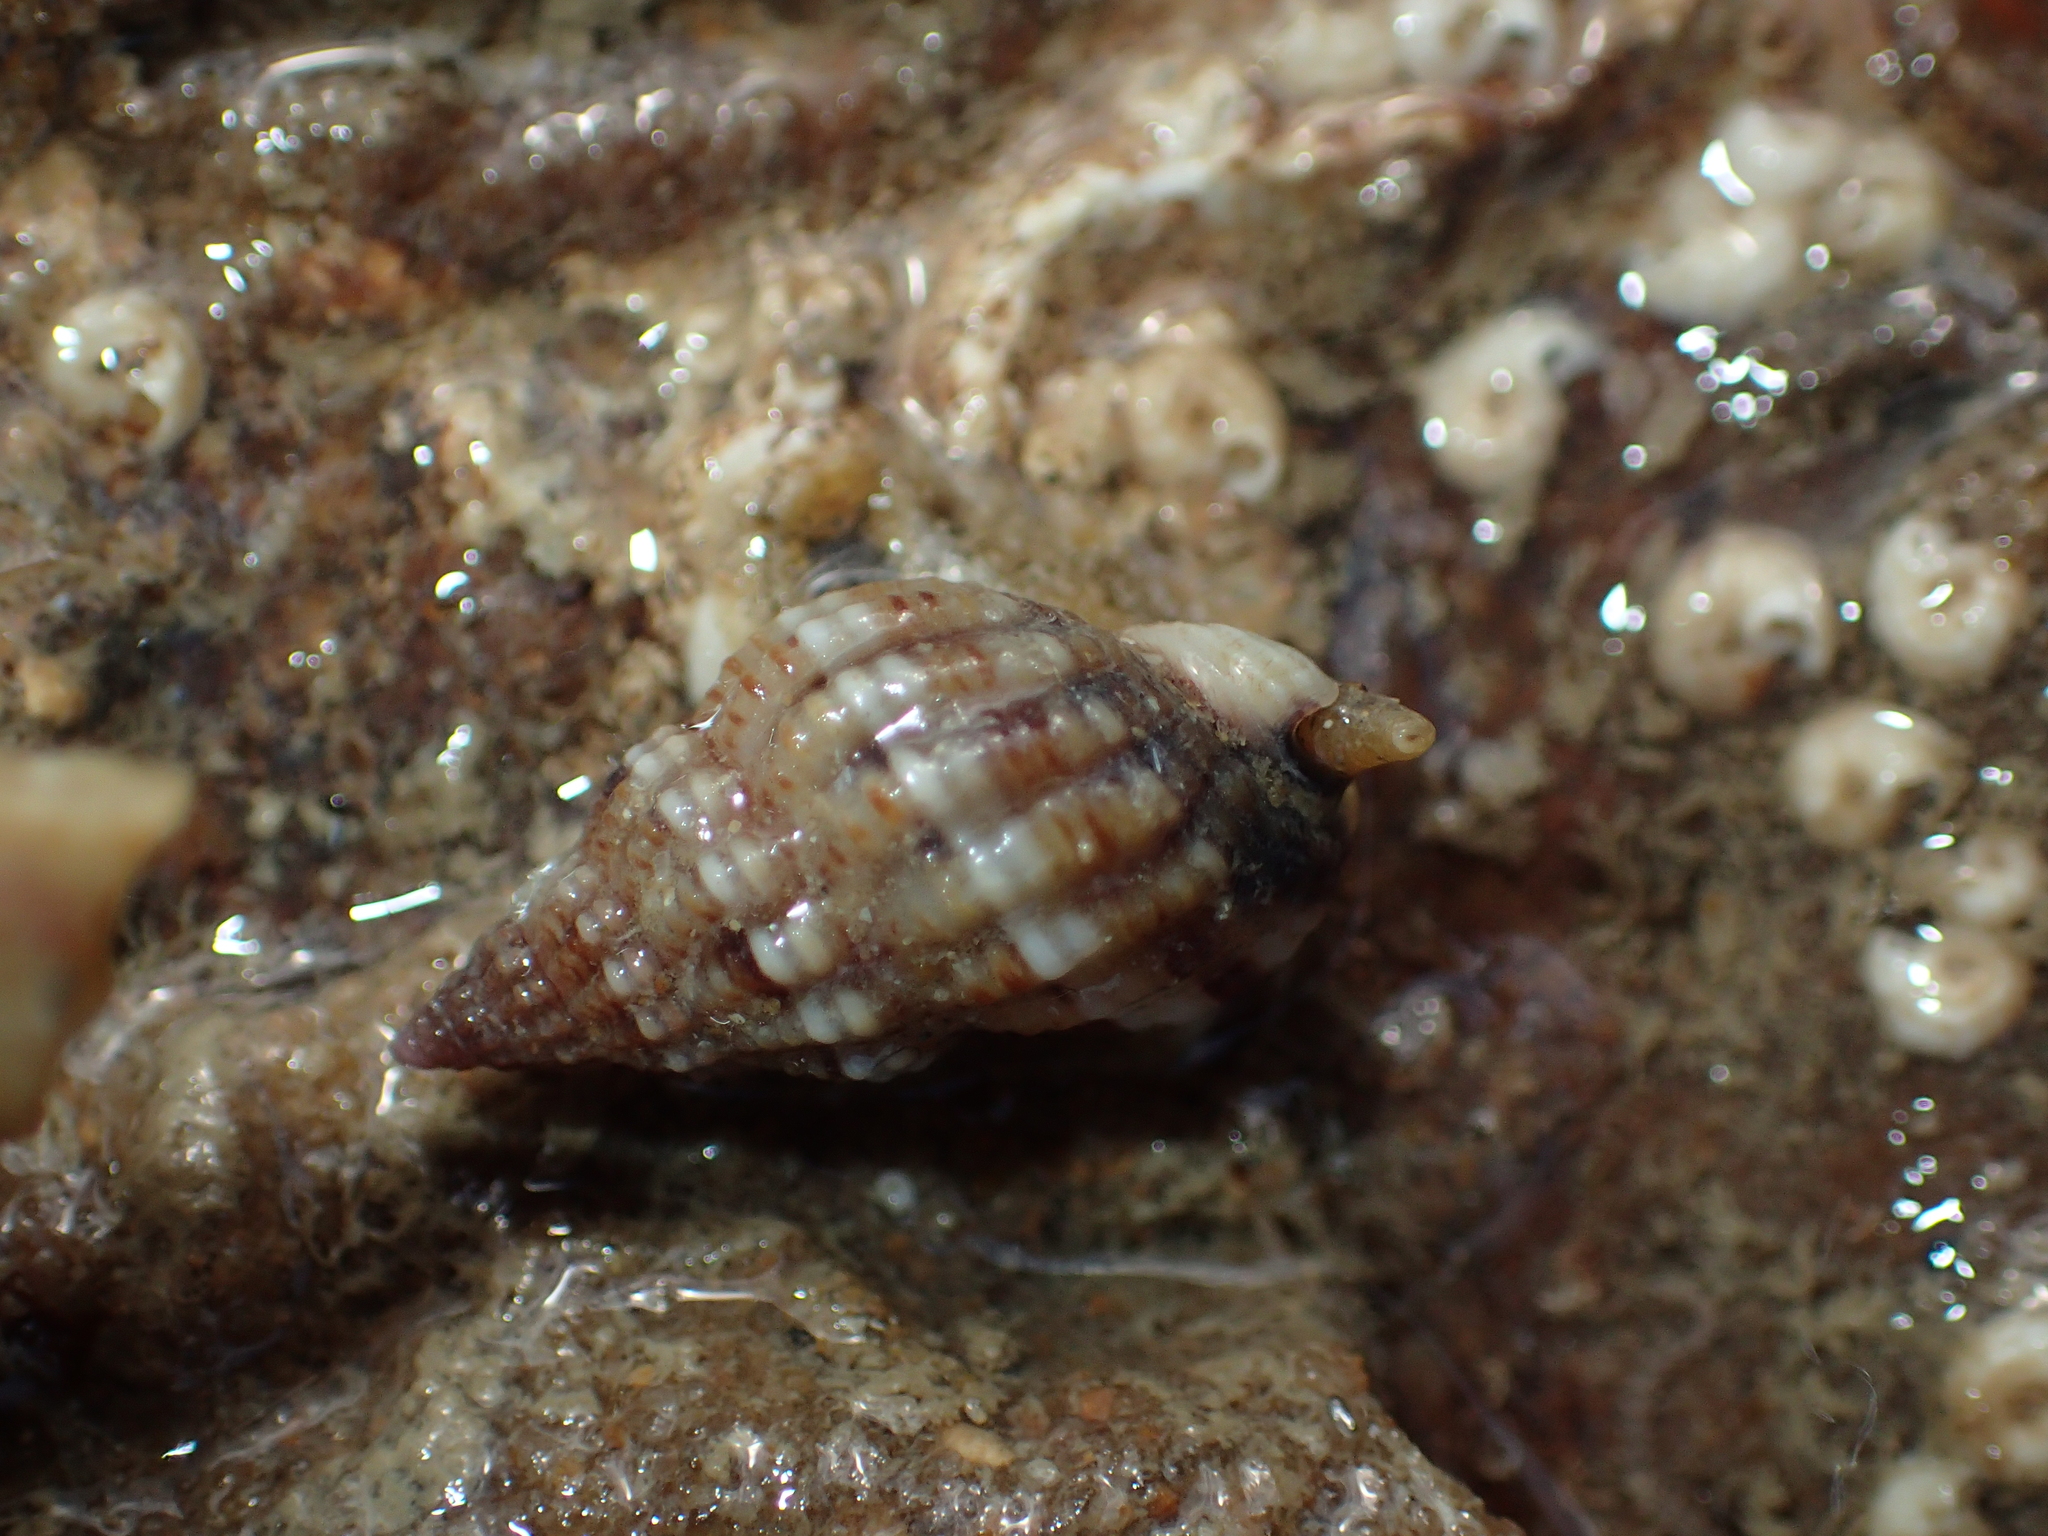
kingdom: Animalia
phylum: Mollusca
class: Gastropoda
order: Neogastropoda
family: Nassariidae
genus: Tritia
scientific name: Tritia incrassata
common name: Thick-lipped dog whelk
